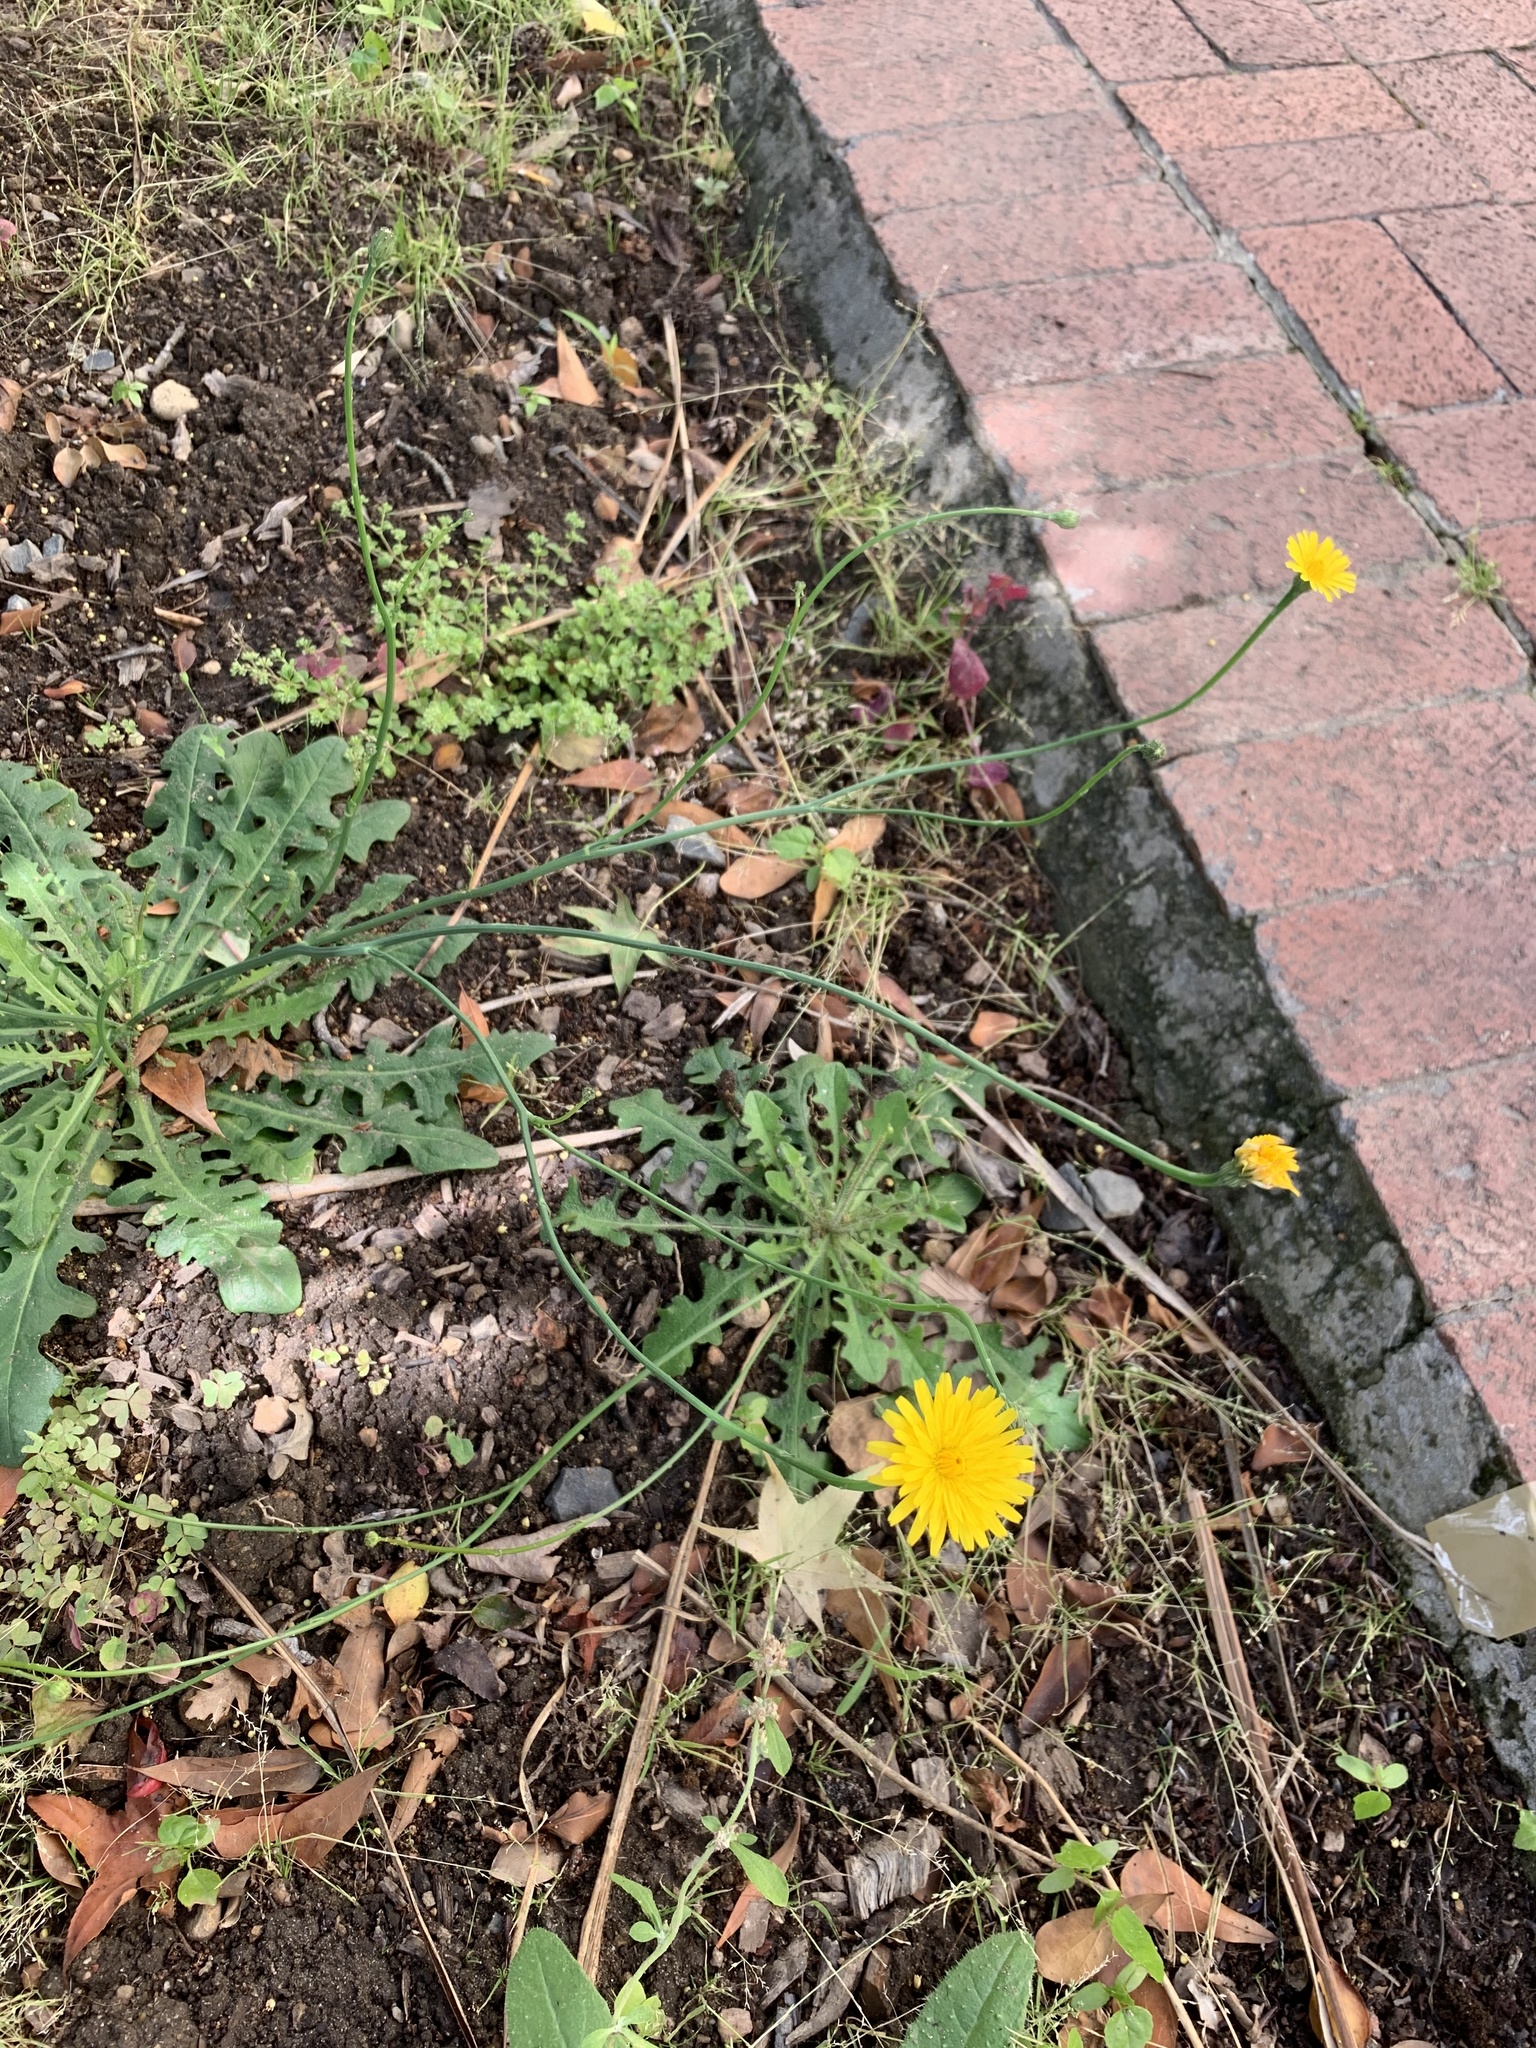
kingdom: Plantae
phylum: Tracheophyta
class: Magnoliopsida
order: Asterales
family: Asteraceae
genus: Hypochaeris
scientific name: Hypochaeris radicata
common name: Flatweed
